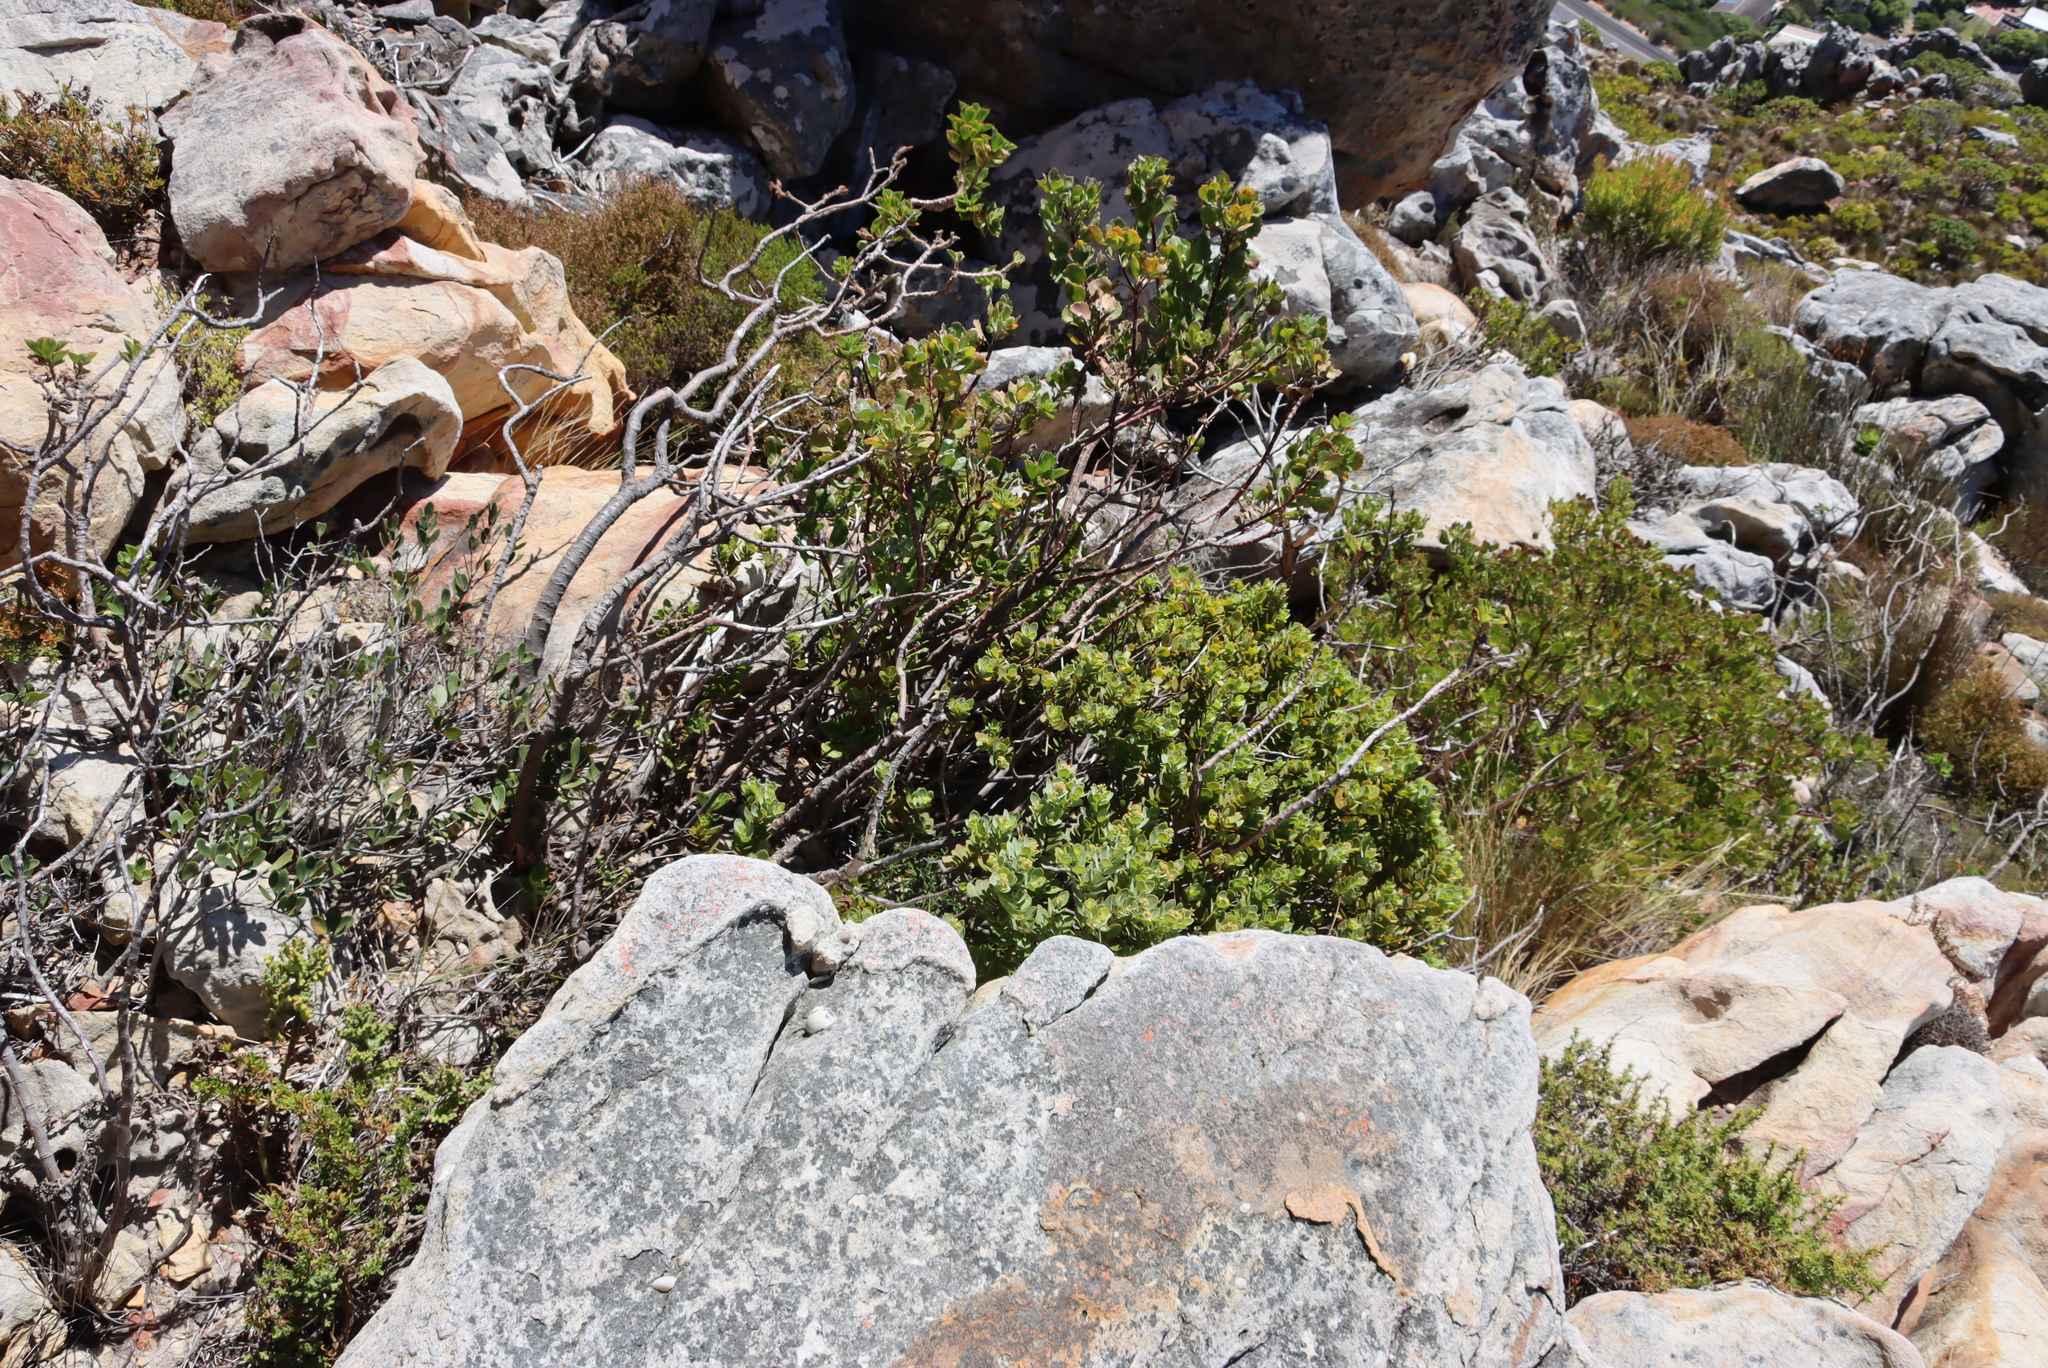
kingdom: Plantae
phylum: Tracheophyta
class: Magnoliopsida
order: Santalales
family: Santalaceae
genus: Osyris
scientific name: Osyris compressa
